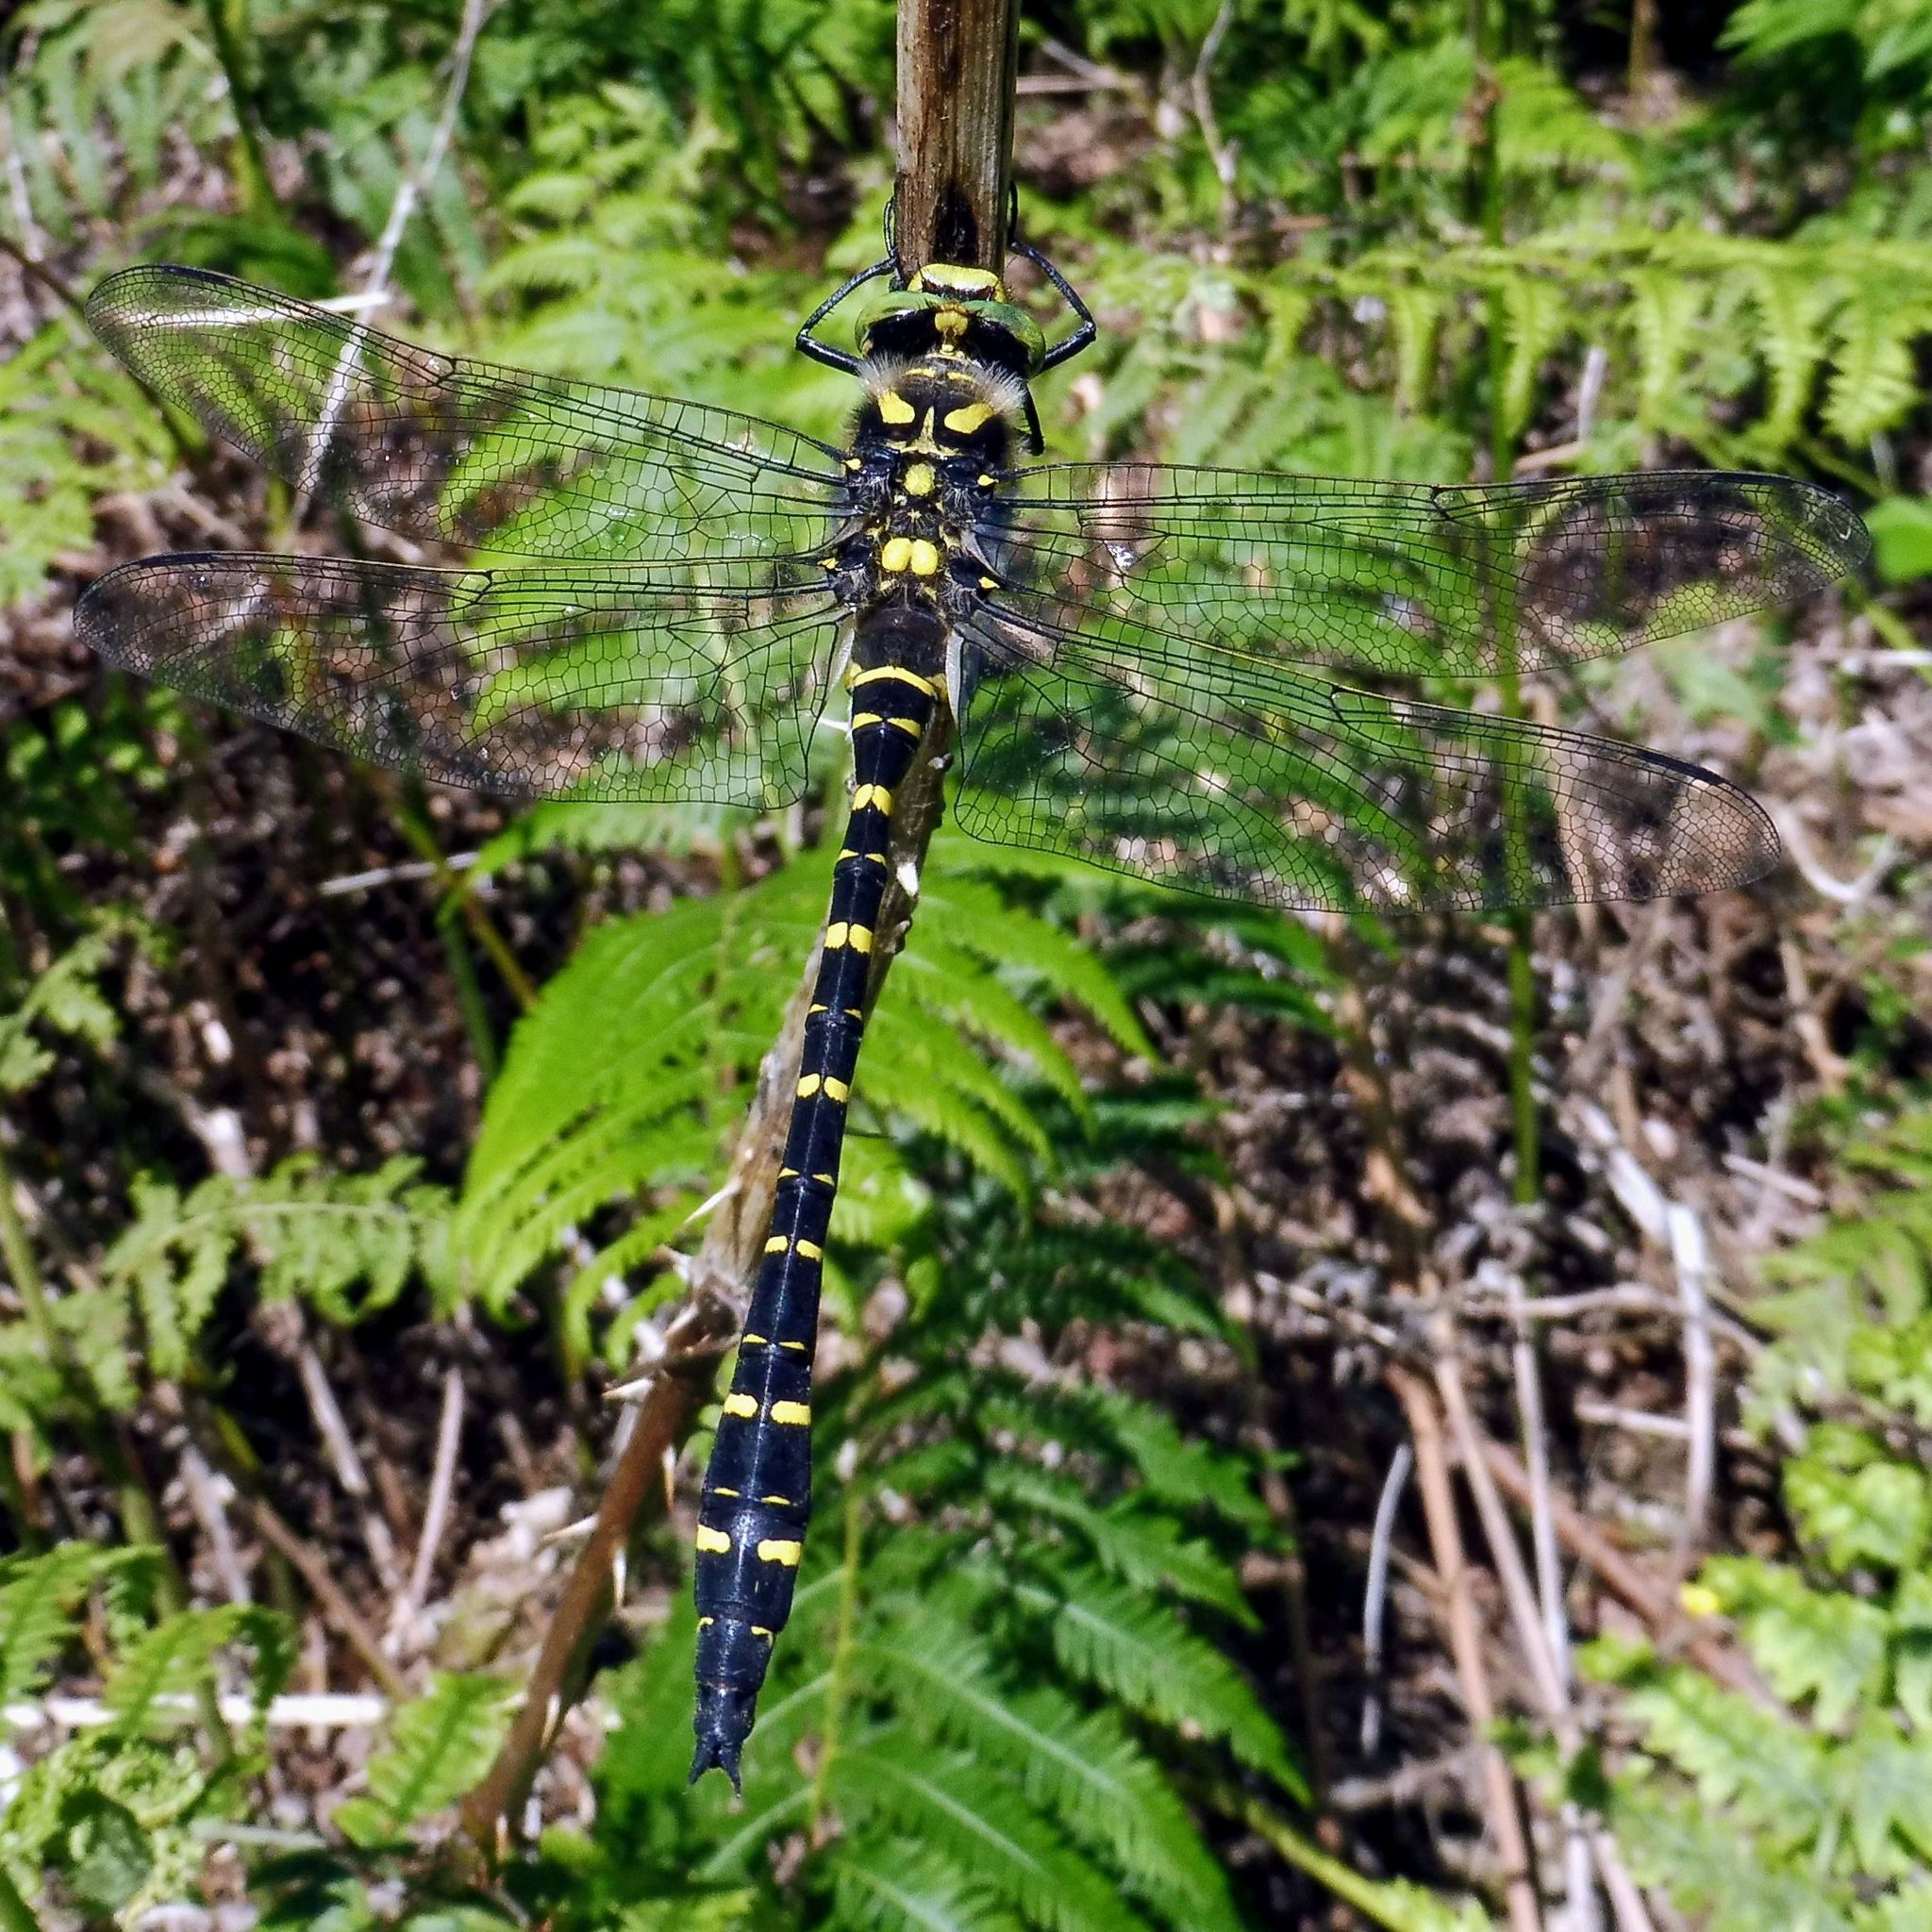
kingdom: Animalia
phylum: Arthropoda
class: Insecta
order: Odonata
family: Cordulegastridae
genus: Cordulegaster
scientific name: Cordulegaster boltonii
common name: Golden-ringed dragonfly
